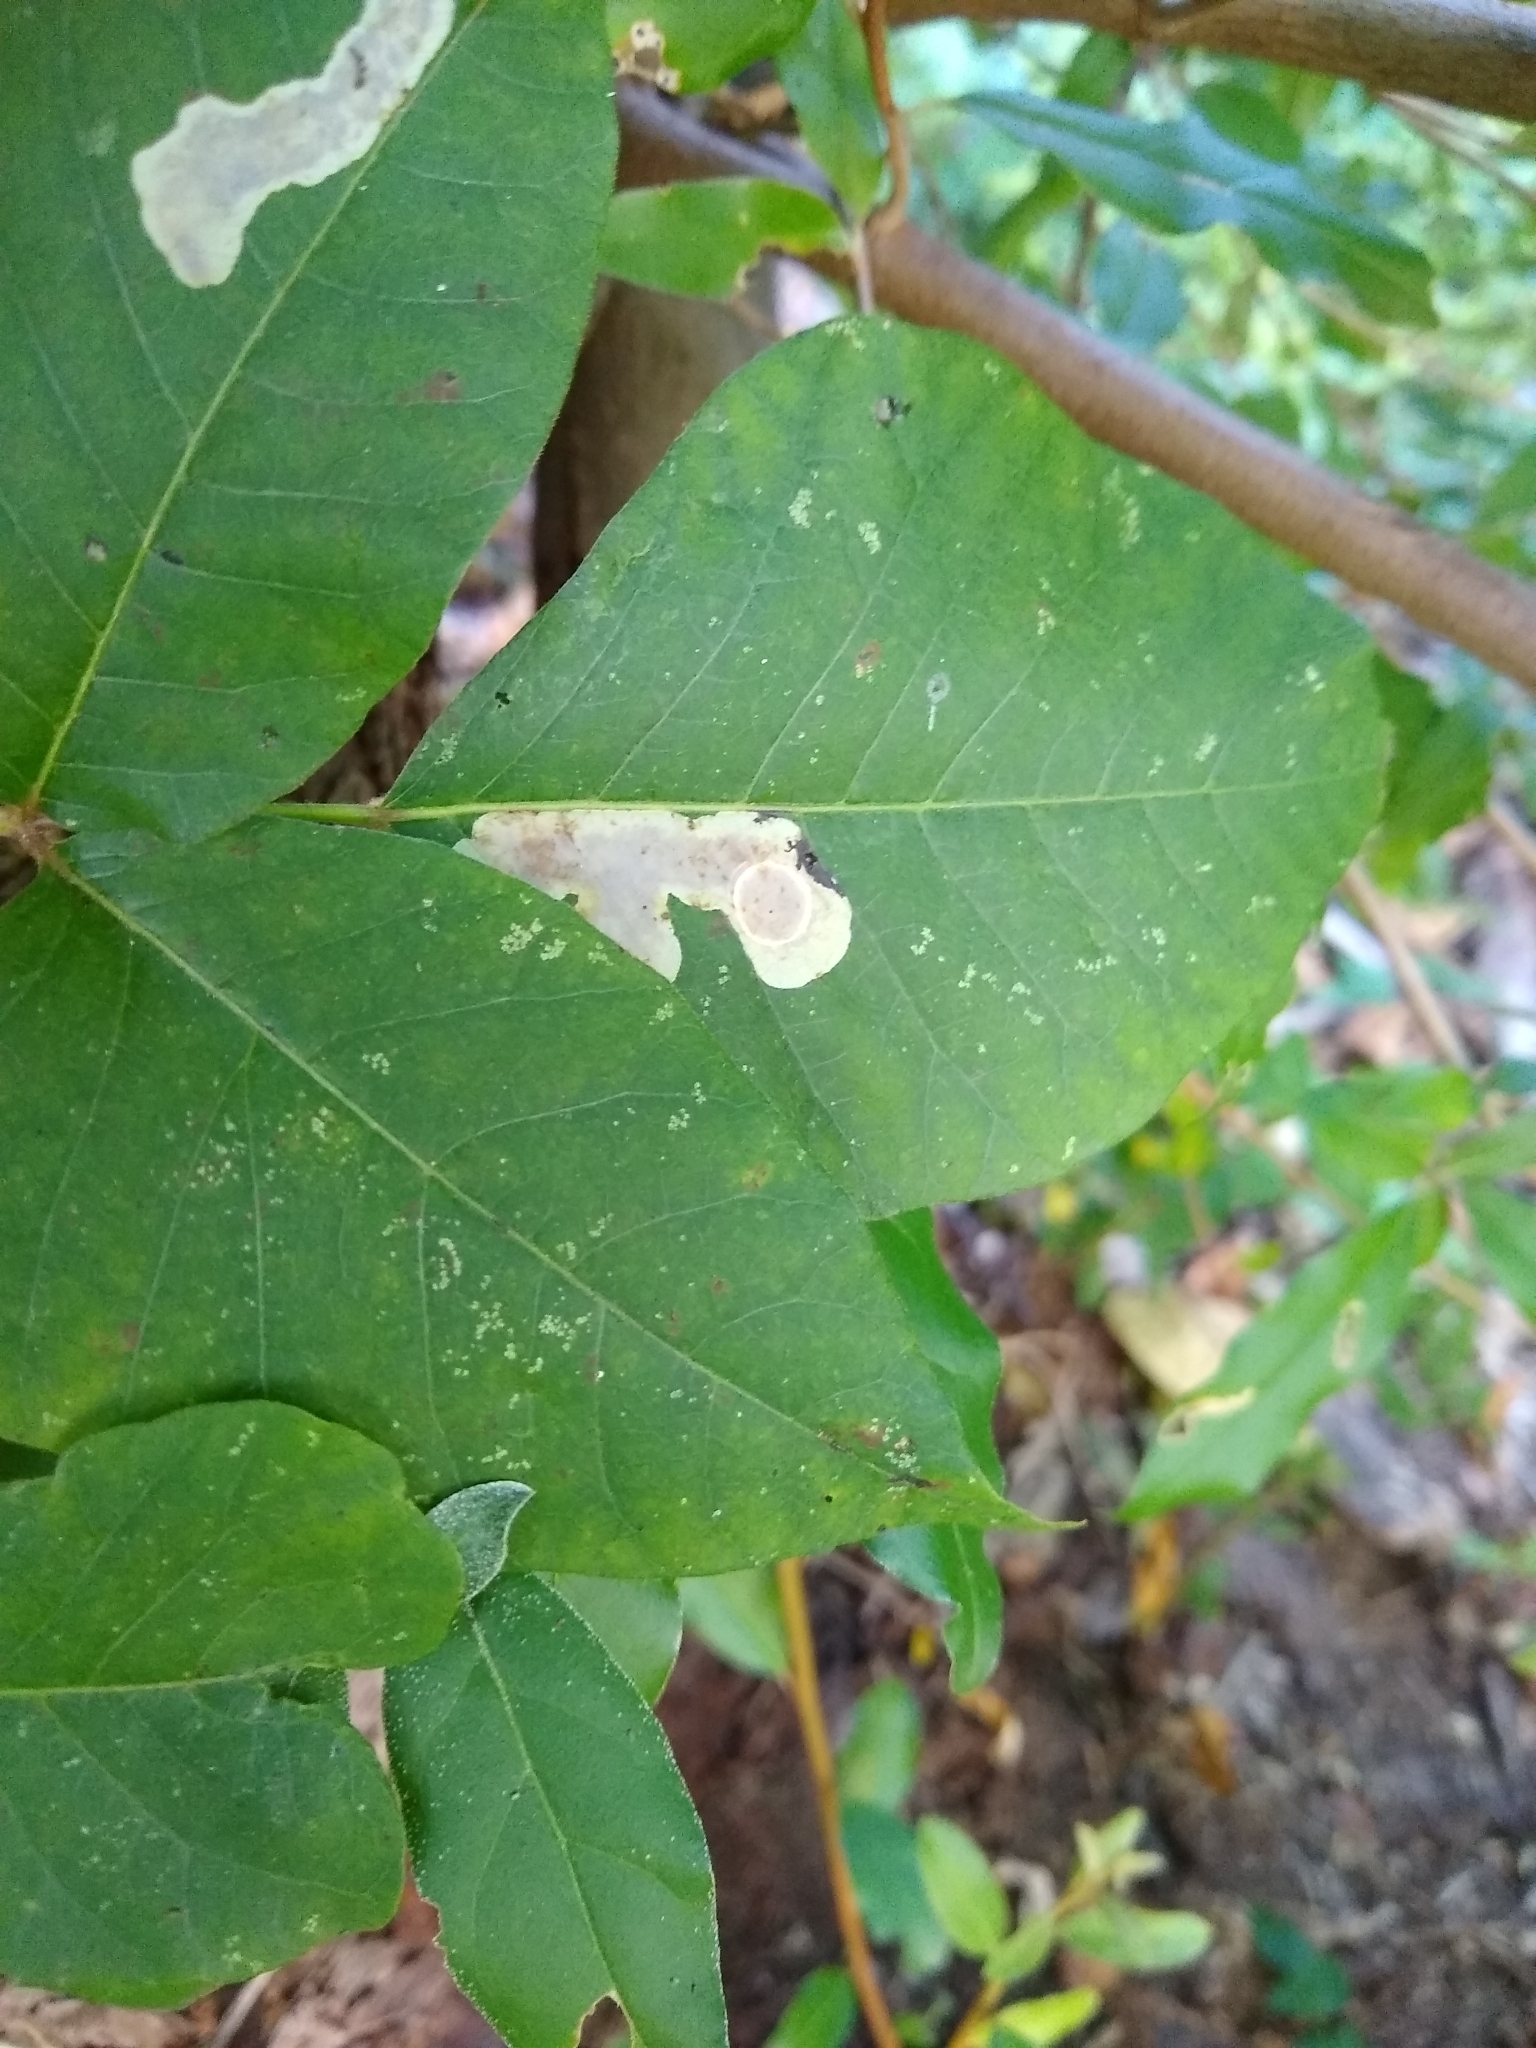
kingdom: Animalia
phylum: Arthropoda
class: Insecta
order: Lepidoptera
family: Gracillariidae
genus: Cameraria
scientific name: Cameraria guttifinitella
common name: Poison ivy leaf-miner moth
